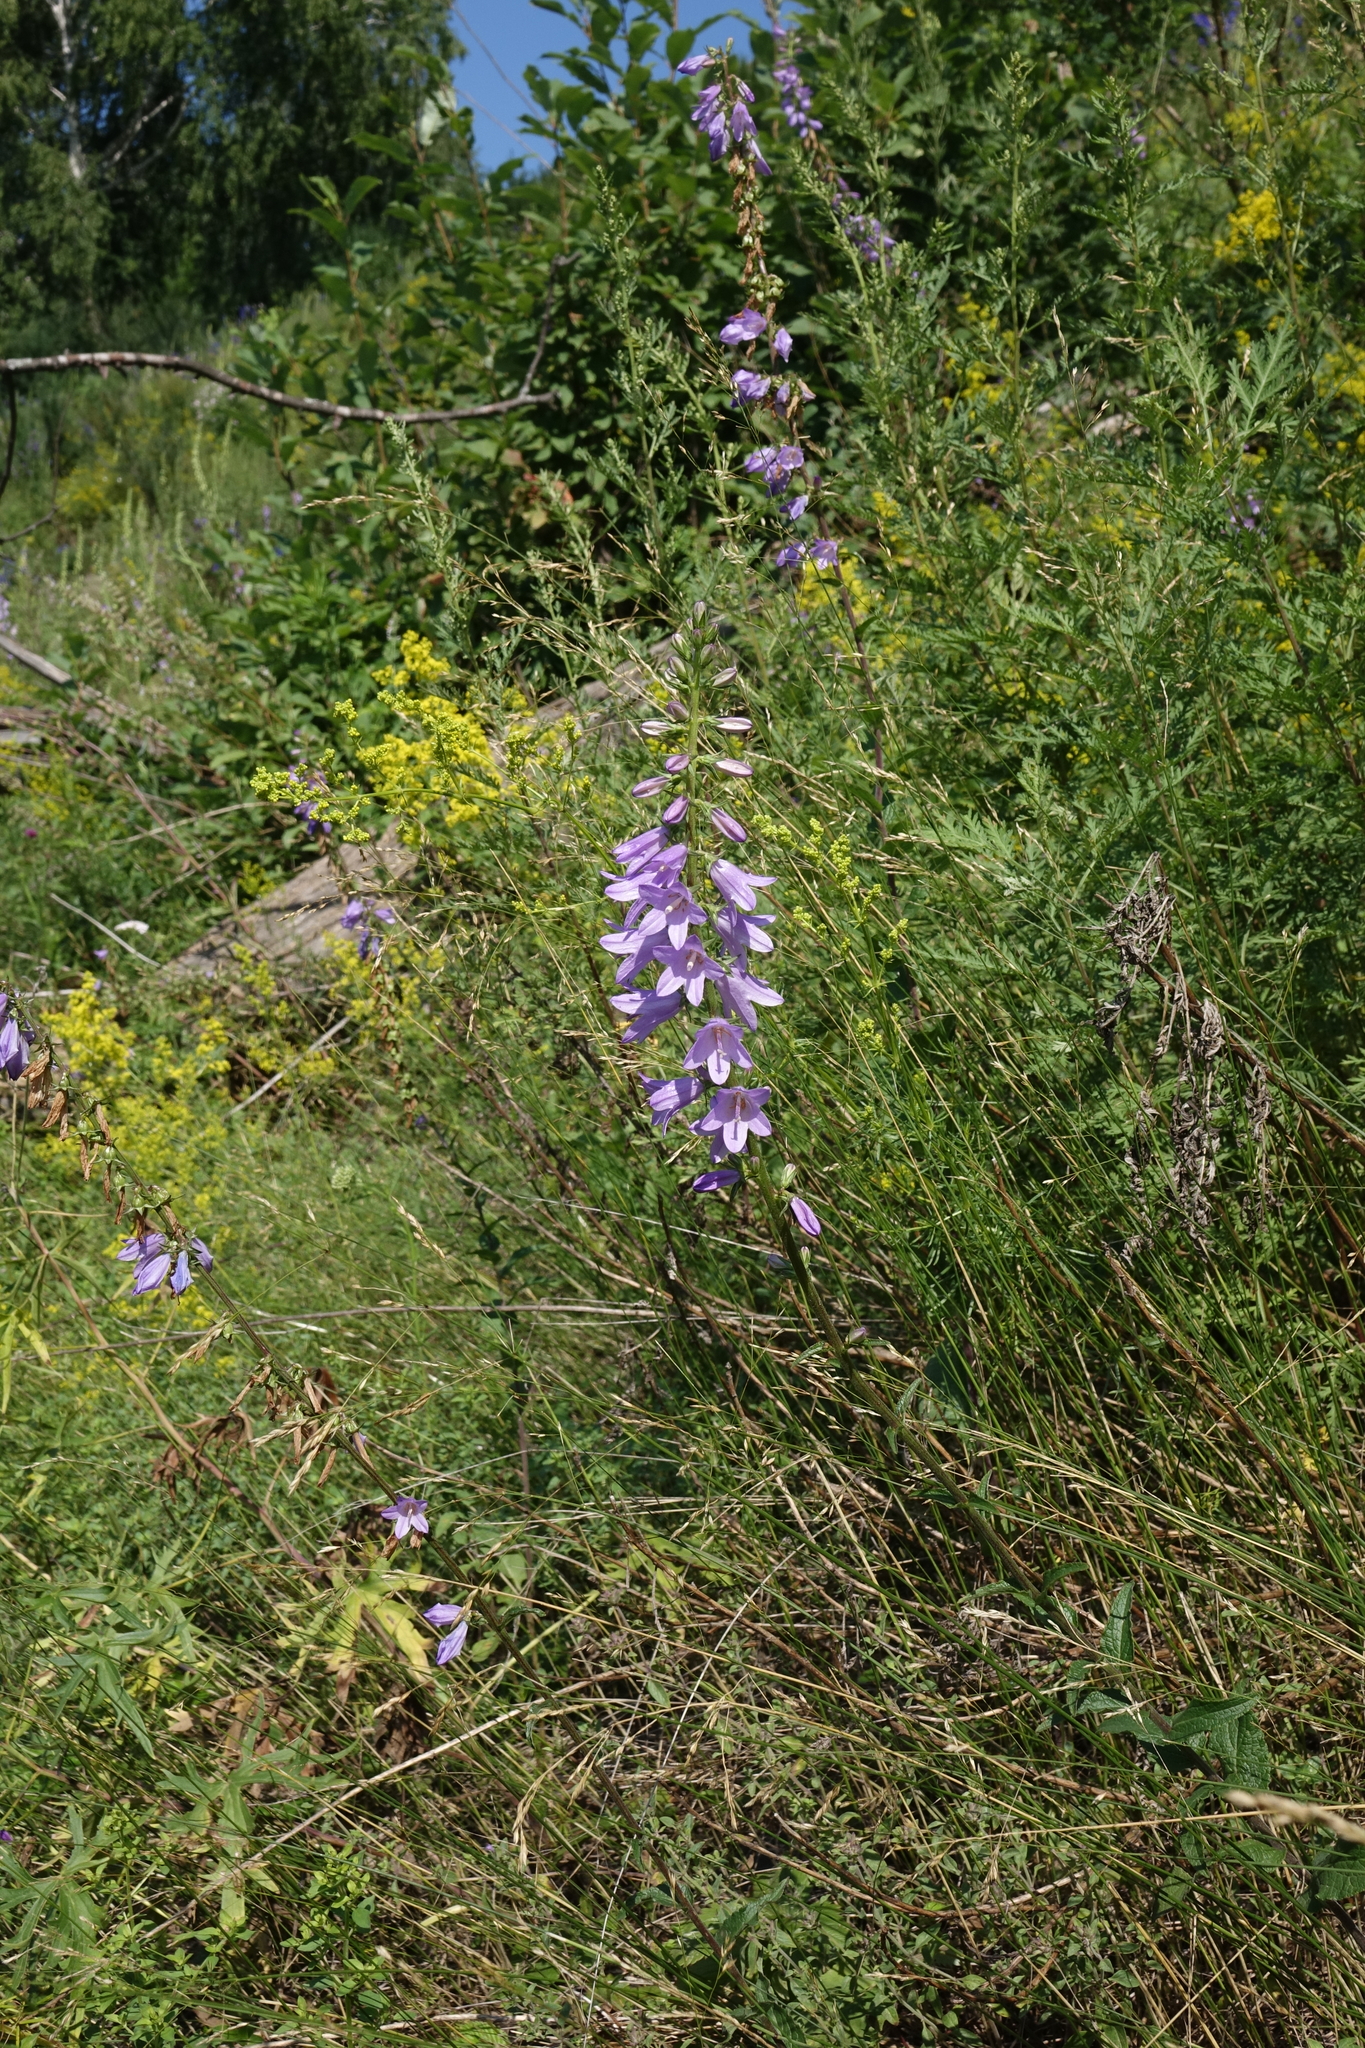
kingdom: Plantae
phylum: Tracheophyta
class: Magnoliopsida
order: Asterales
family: Campanulaceae
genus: Campanula
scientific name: Campanula rapunculoides
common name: Creeping bellflower
